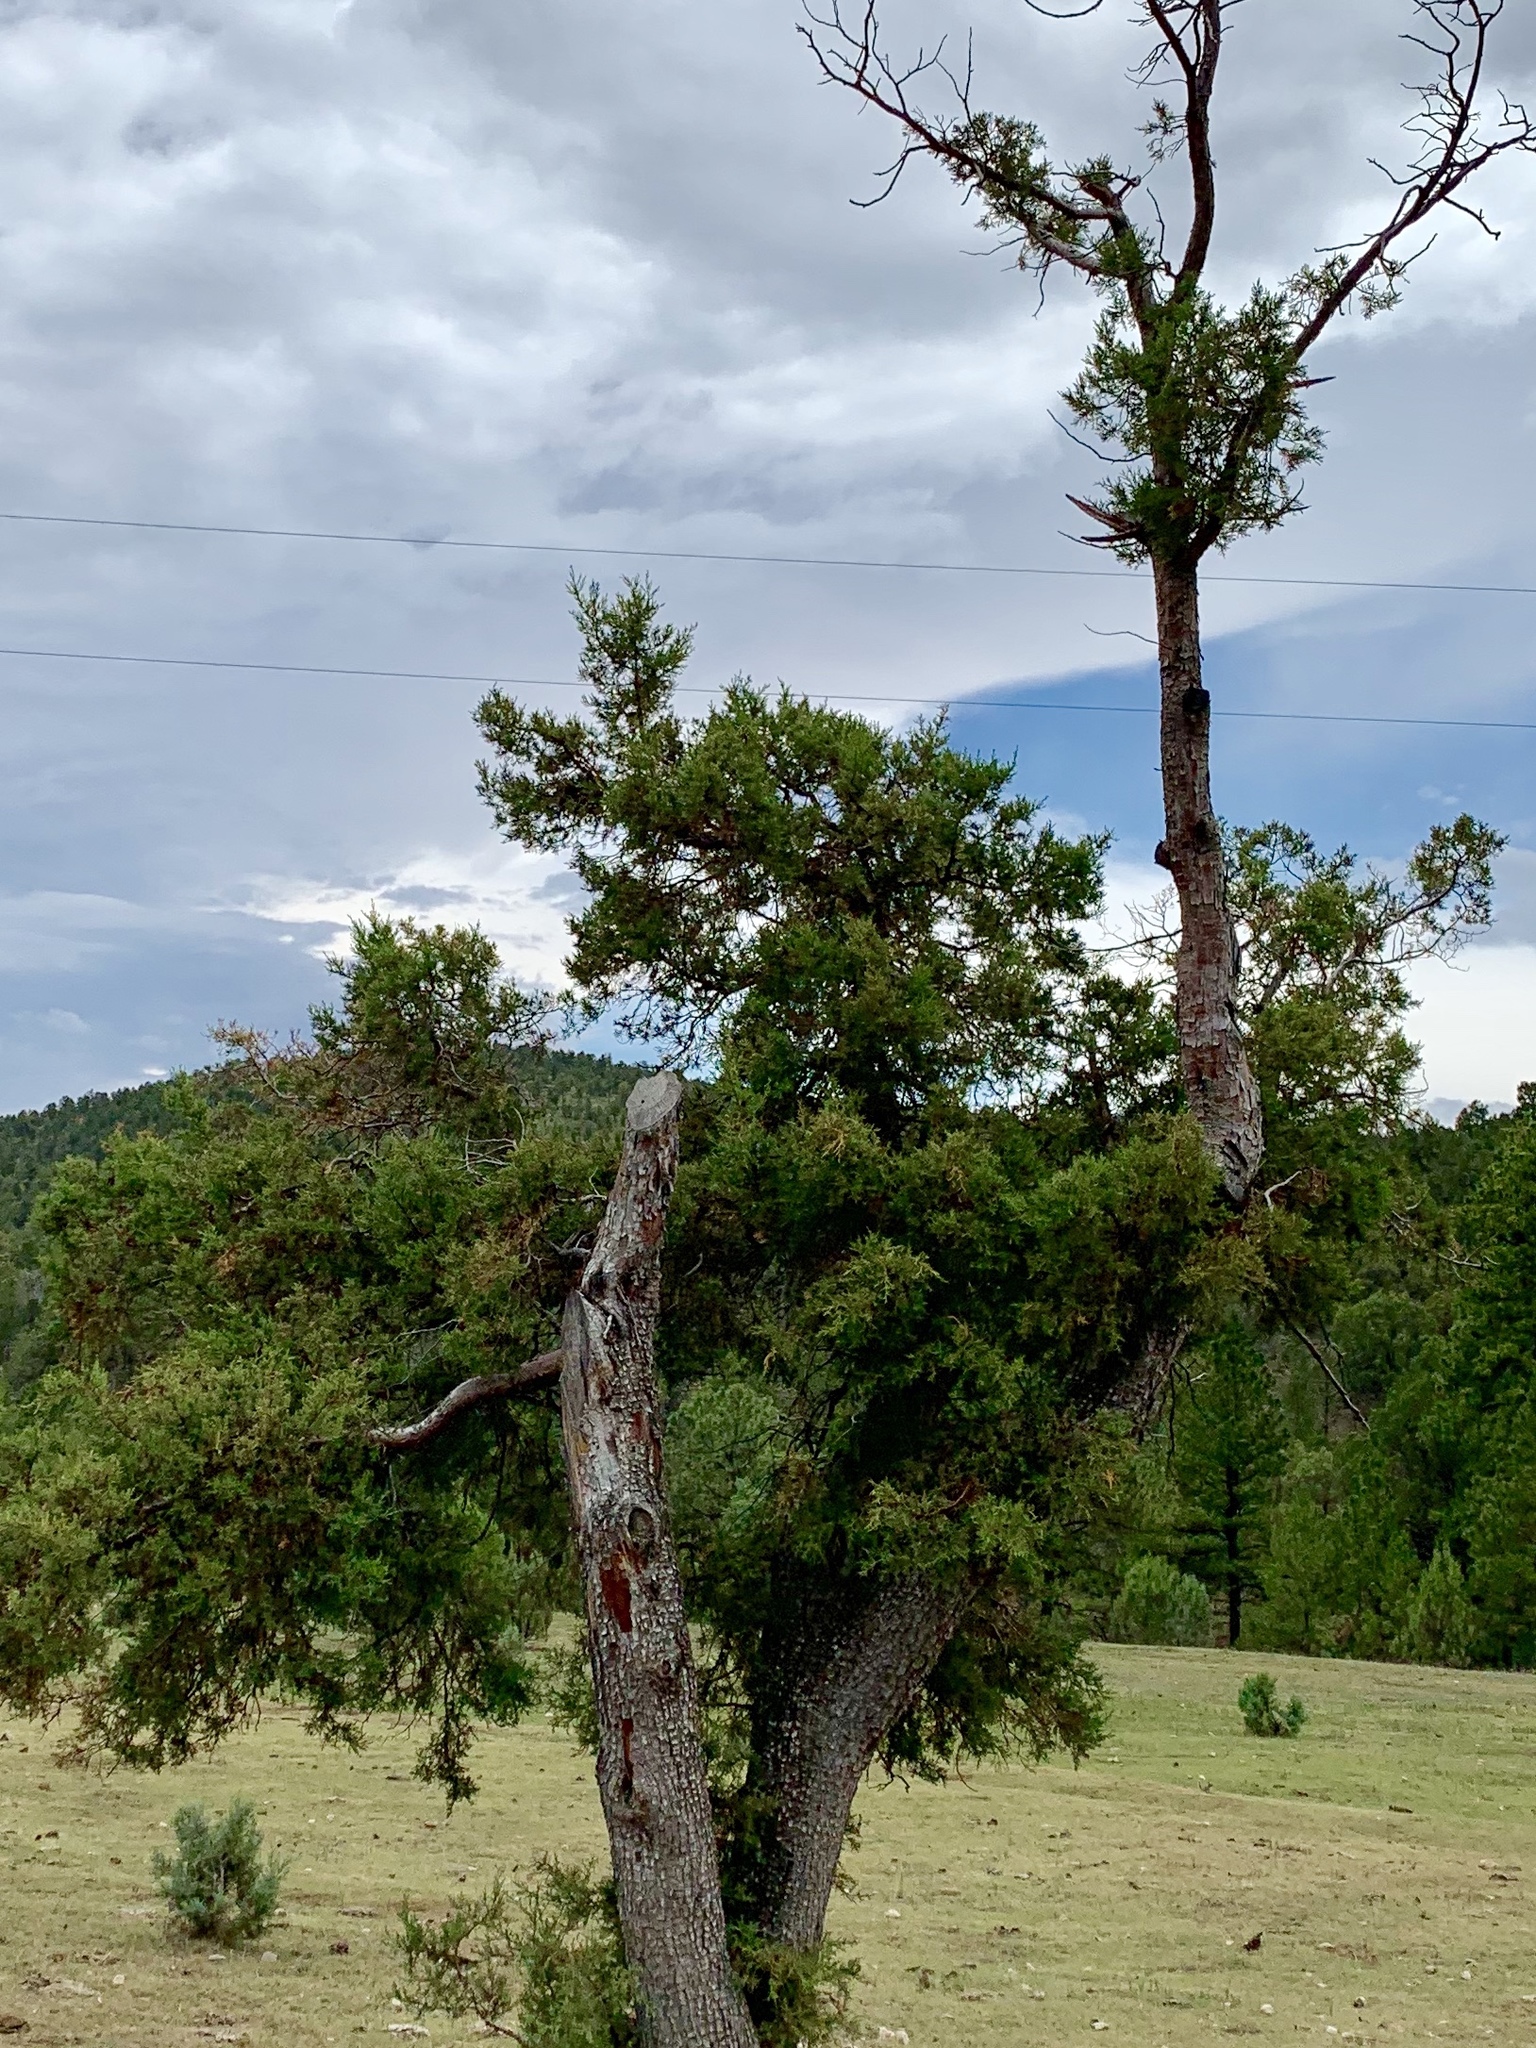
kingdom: Plantae
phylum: Tracheophyta
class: Pinopsida
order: Pinales
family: Cupressaceae
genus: Juniperus
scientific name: Juniperus deppeana
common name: Alligator juniper
